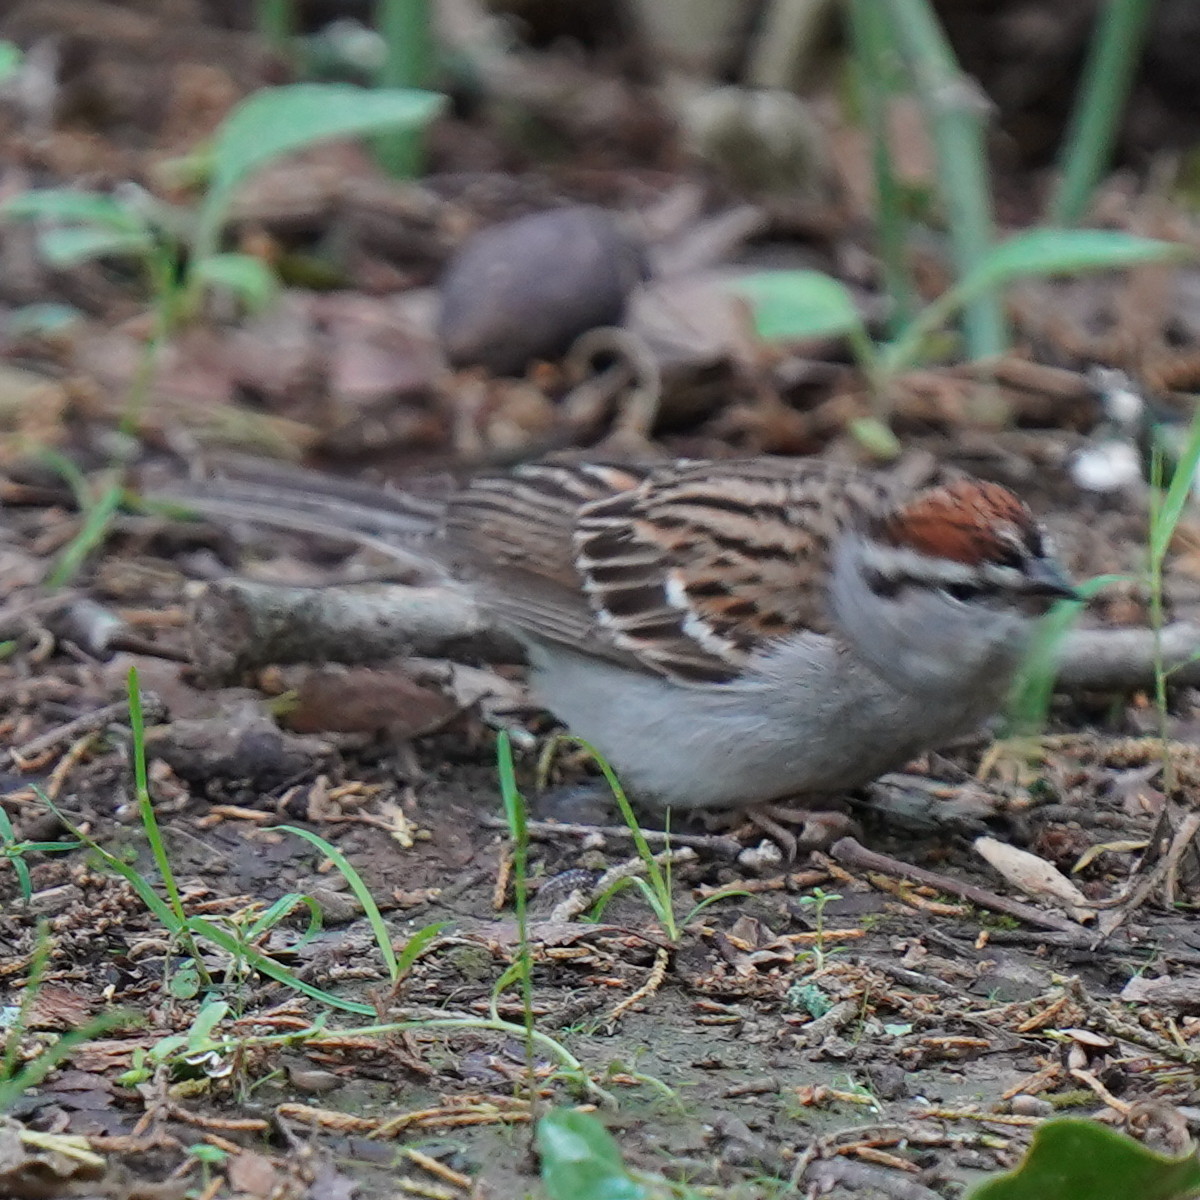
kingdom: Animalia
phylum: Chordata
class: Aves
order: Passeriformes
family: Passerellidae
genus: Spizella
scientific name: Spizella passerina
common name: Chipping sparrow
